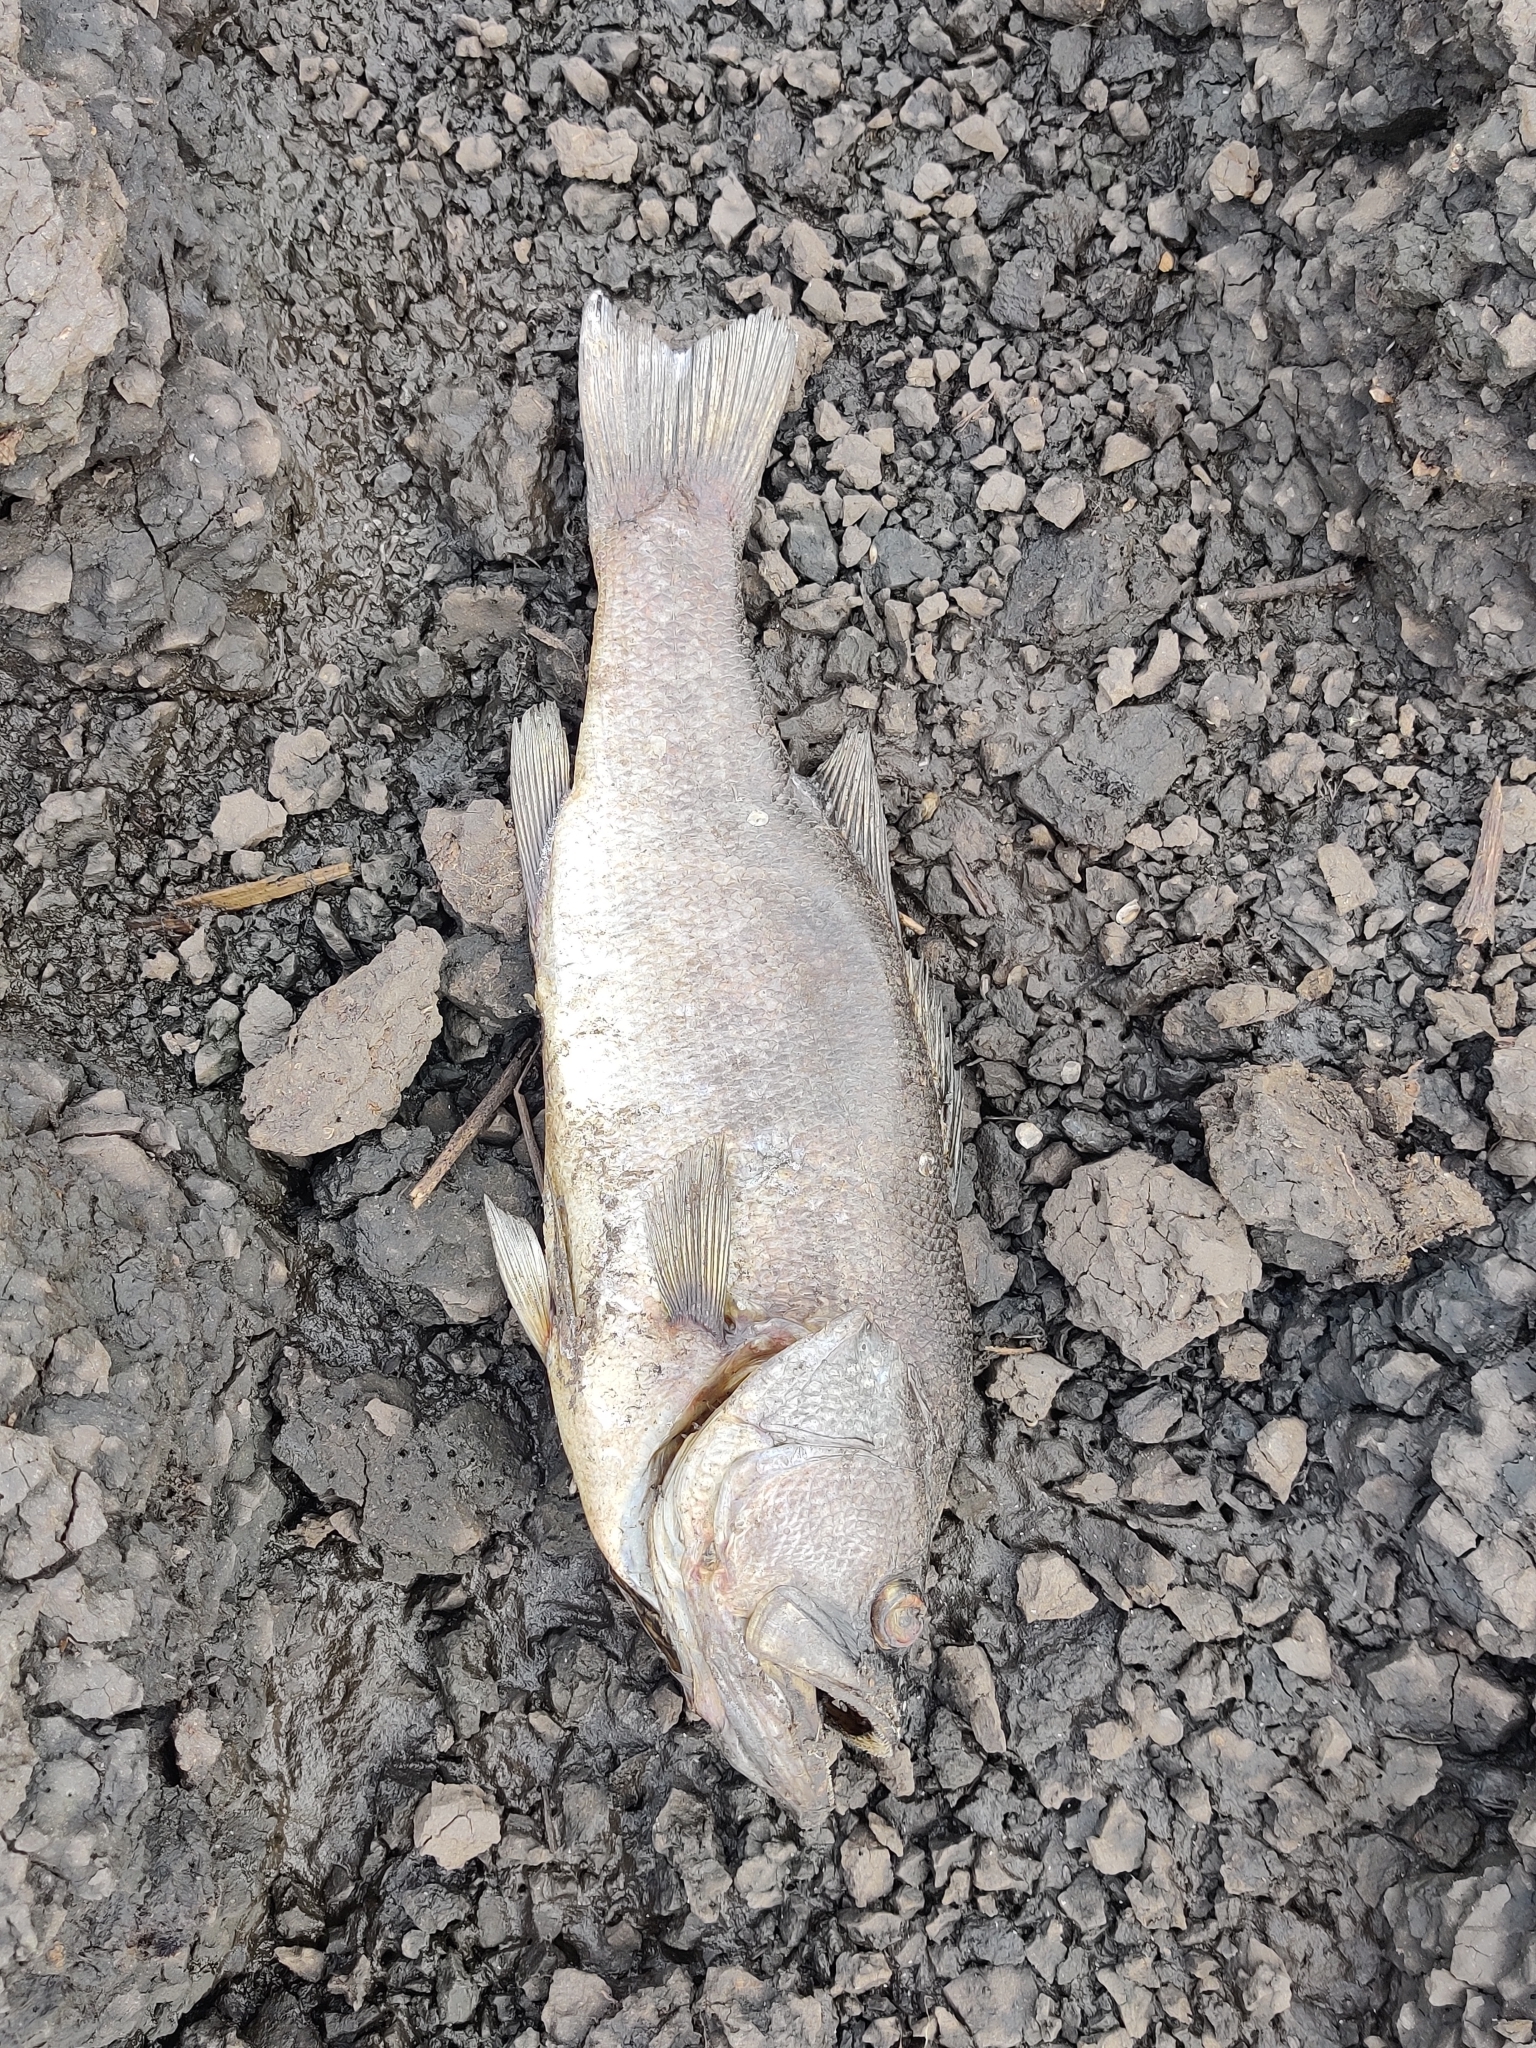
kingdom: Animalia
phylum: Chordata
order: Perciformes
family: Centrarchidae
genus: Micropterus
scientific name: Micropterus salmoides
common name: Largemouth bass
